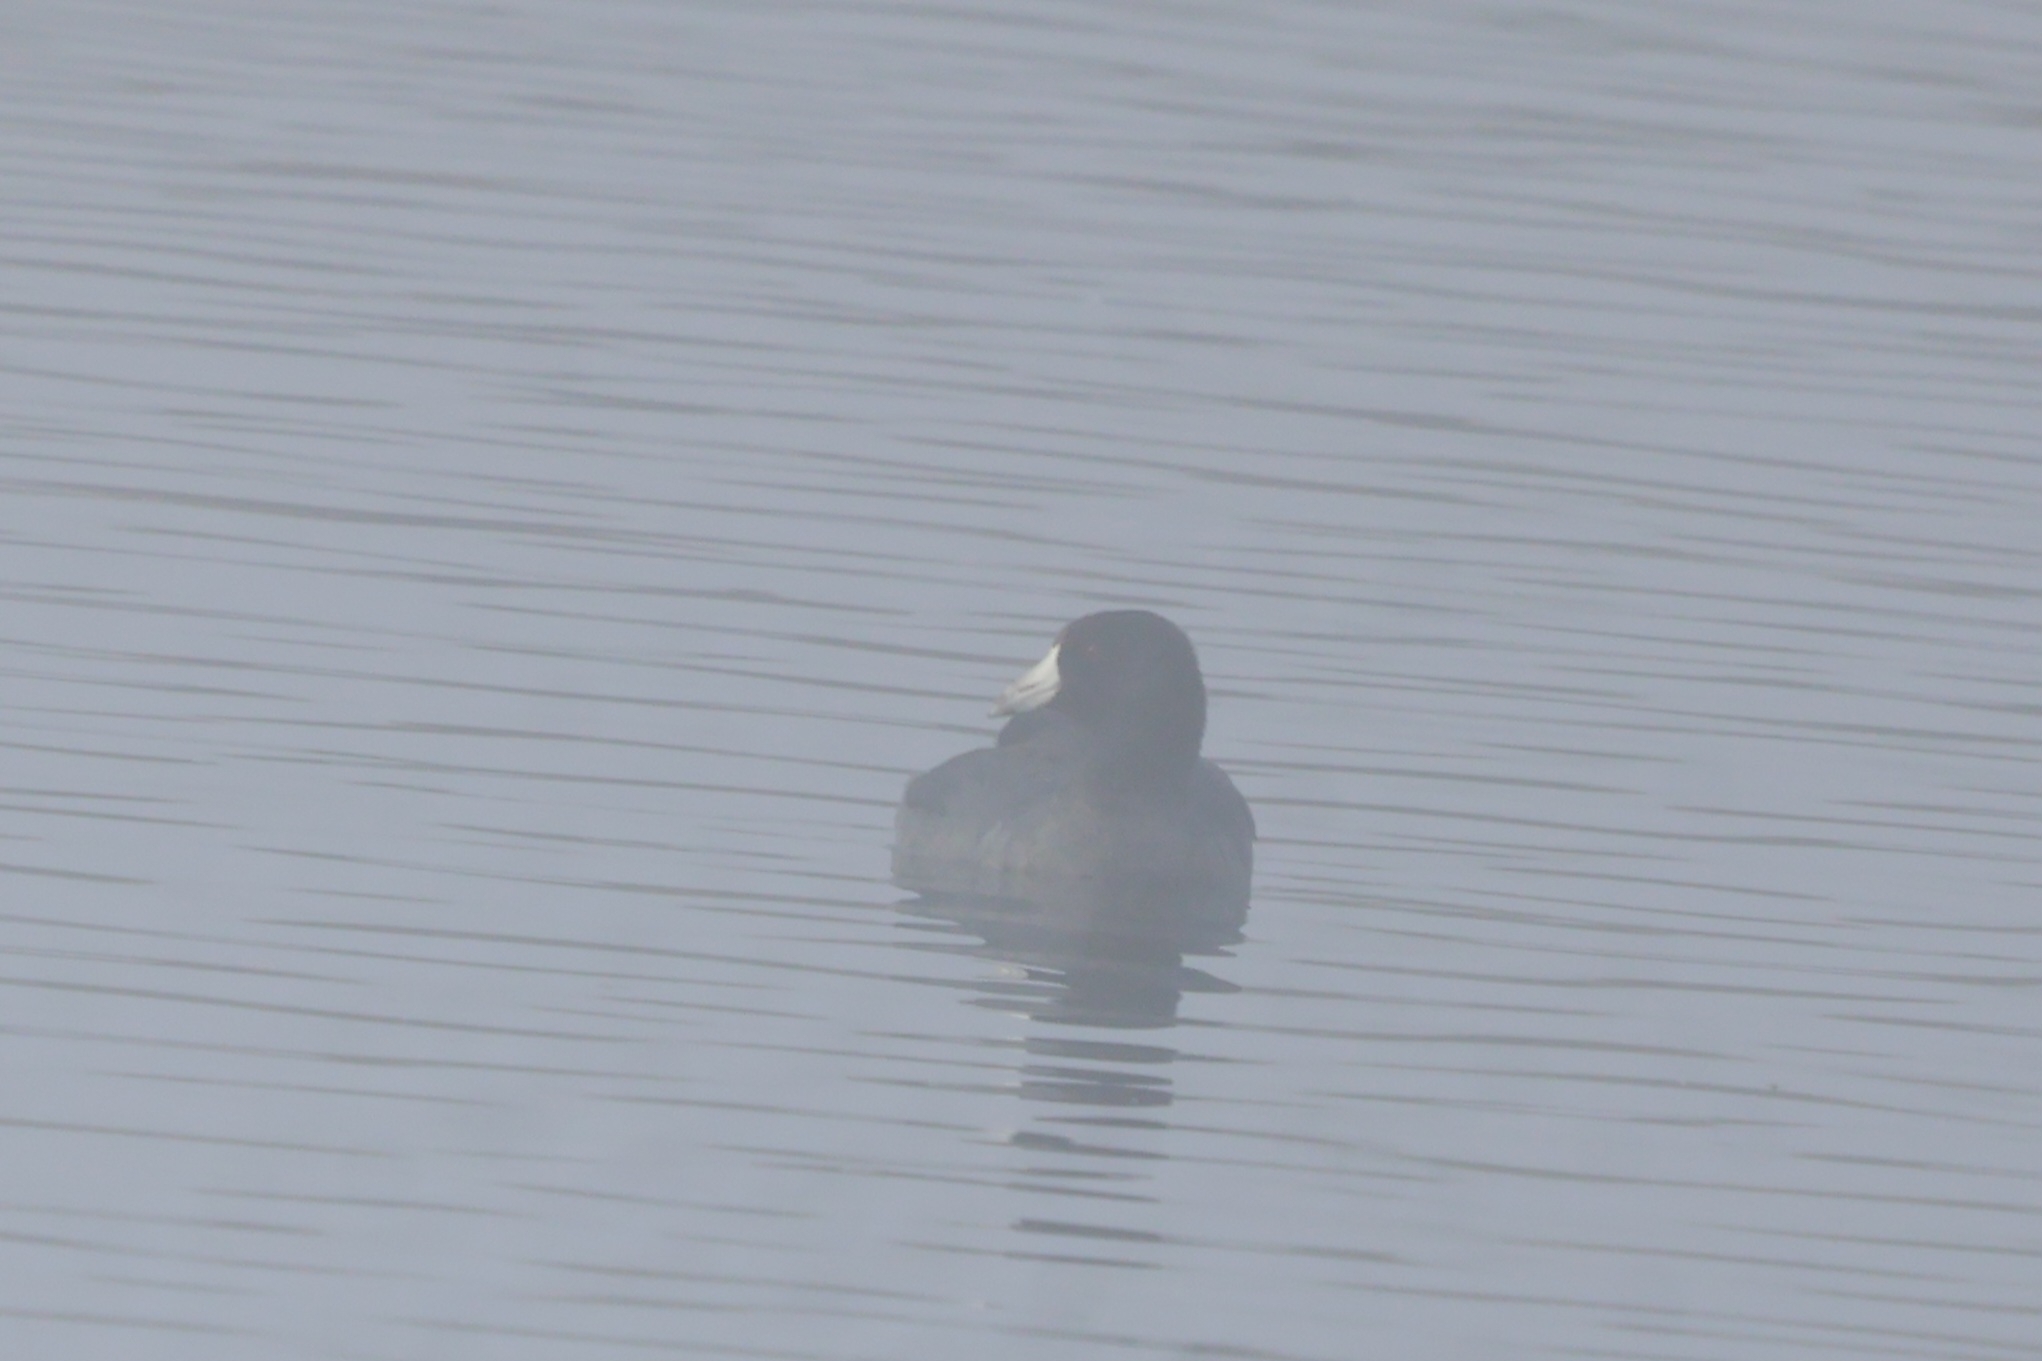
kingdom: Animalia
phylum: Chordata
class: Aves
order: Gruiformes
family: Rallidae
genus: Fulica
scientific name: Fulica americana
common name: American coot
